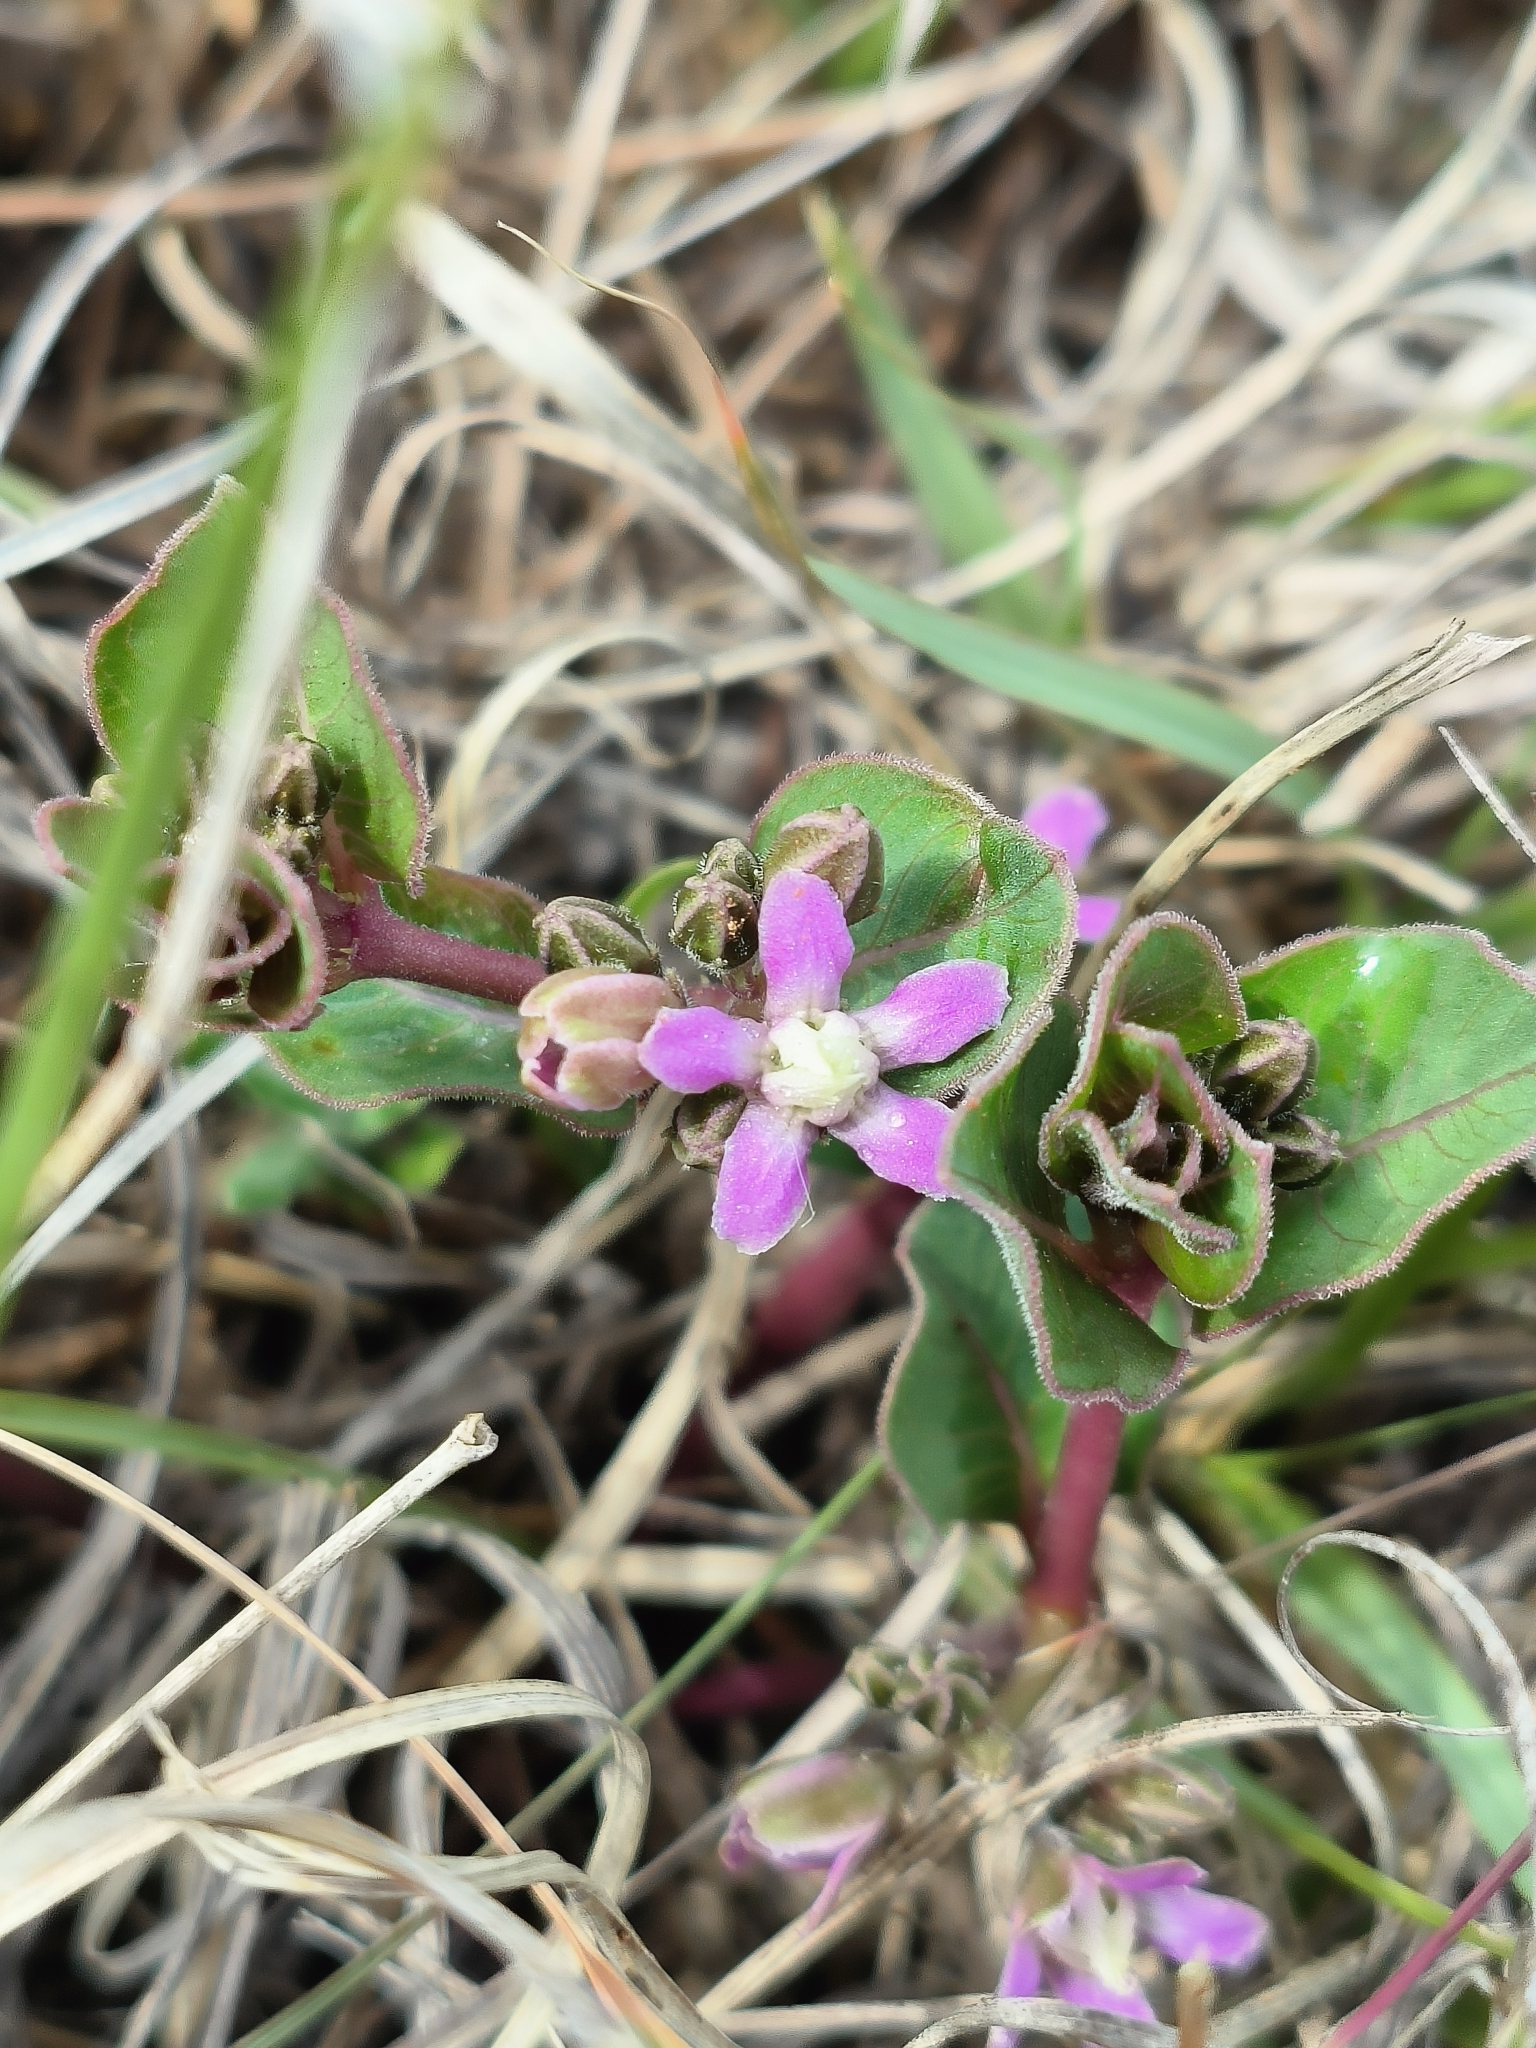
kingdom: Plantae
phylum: Tracheophyta
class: Magnoliopsida
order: Gentianales
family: Apocynaceae
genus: Raphionacme
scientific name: Raphionacme hirsuta
